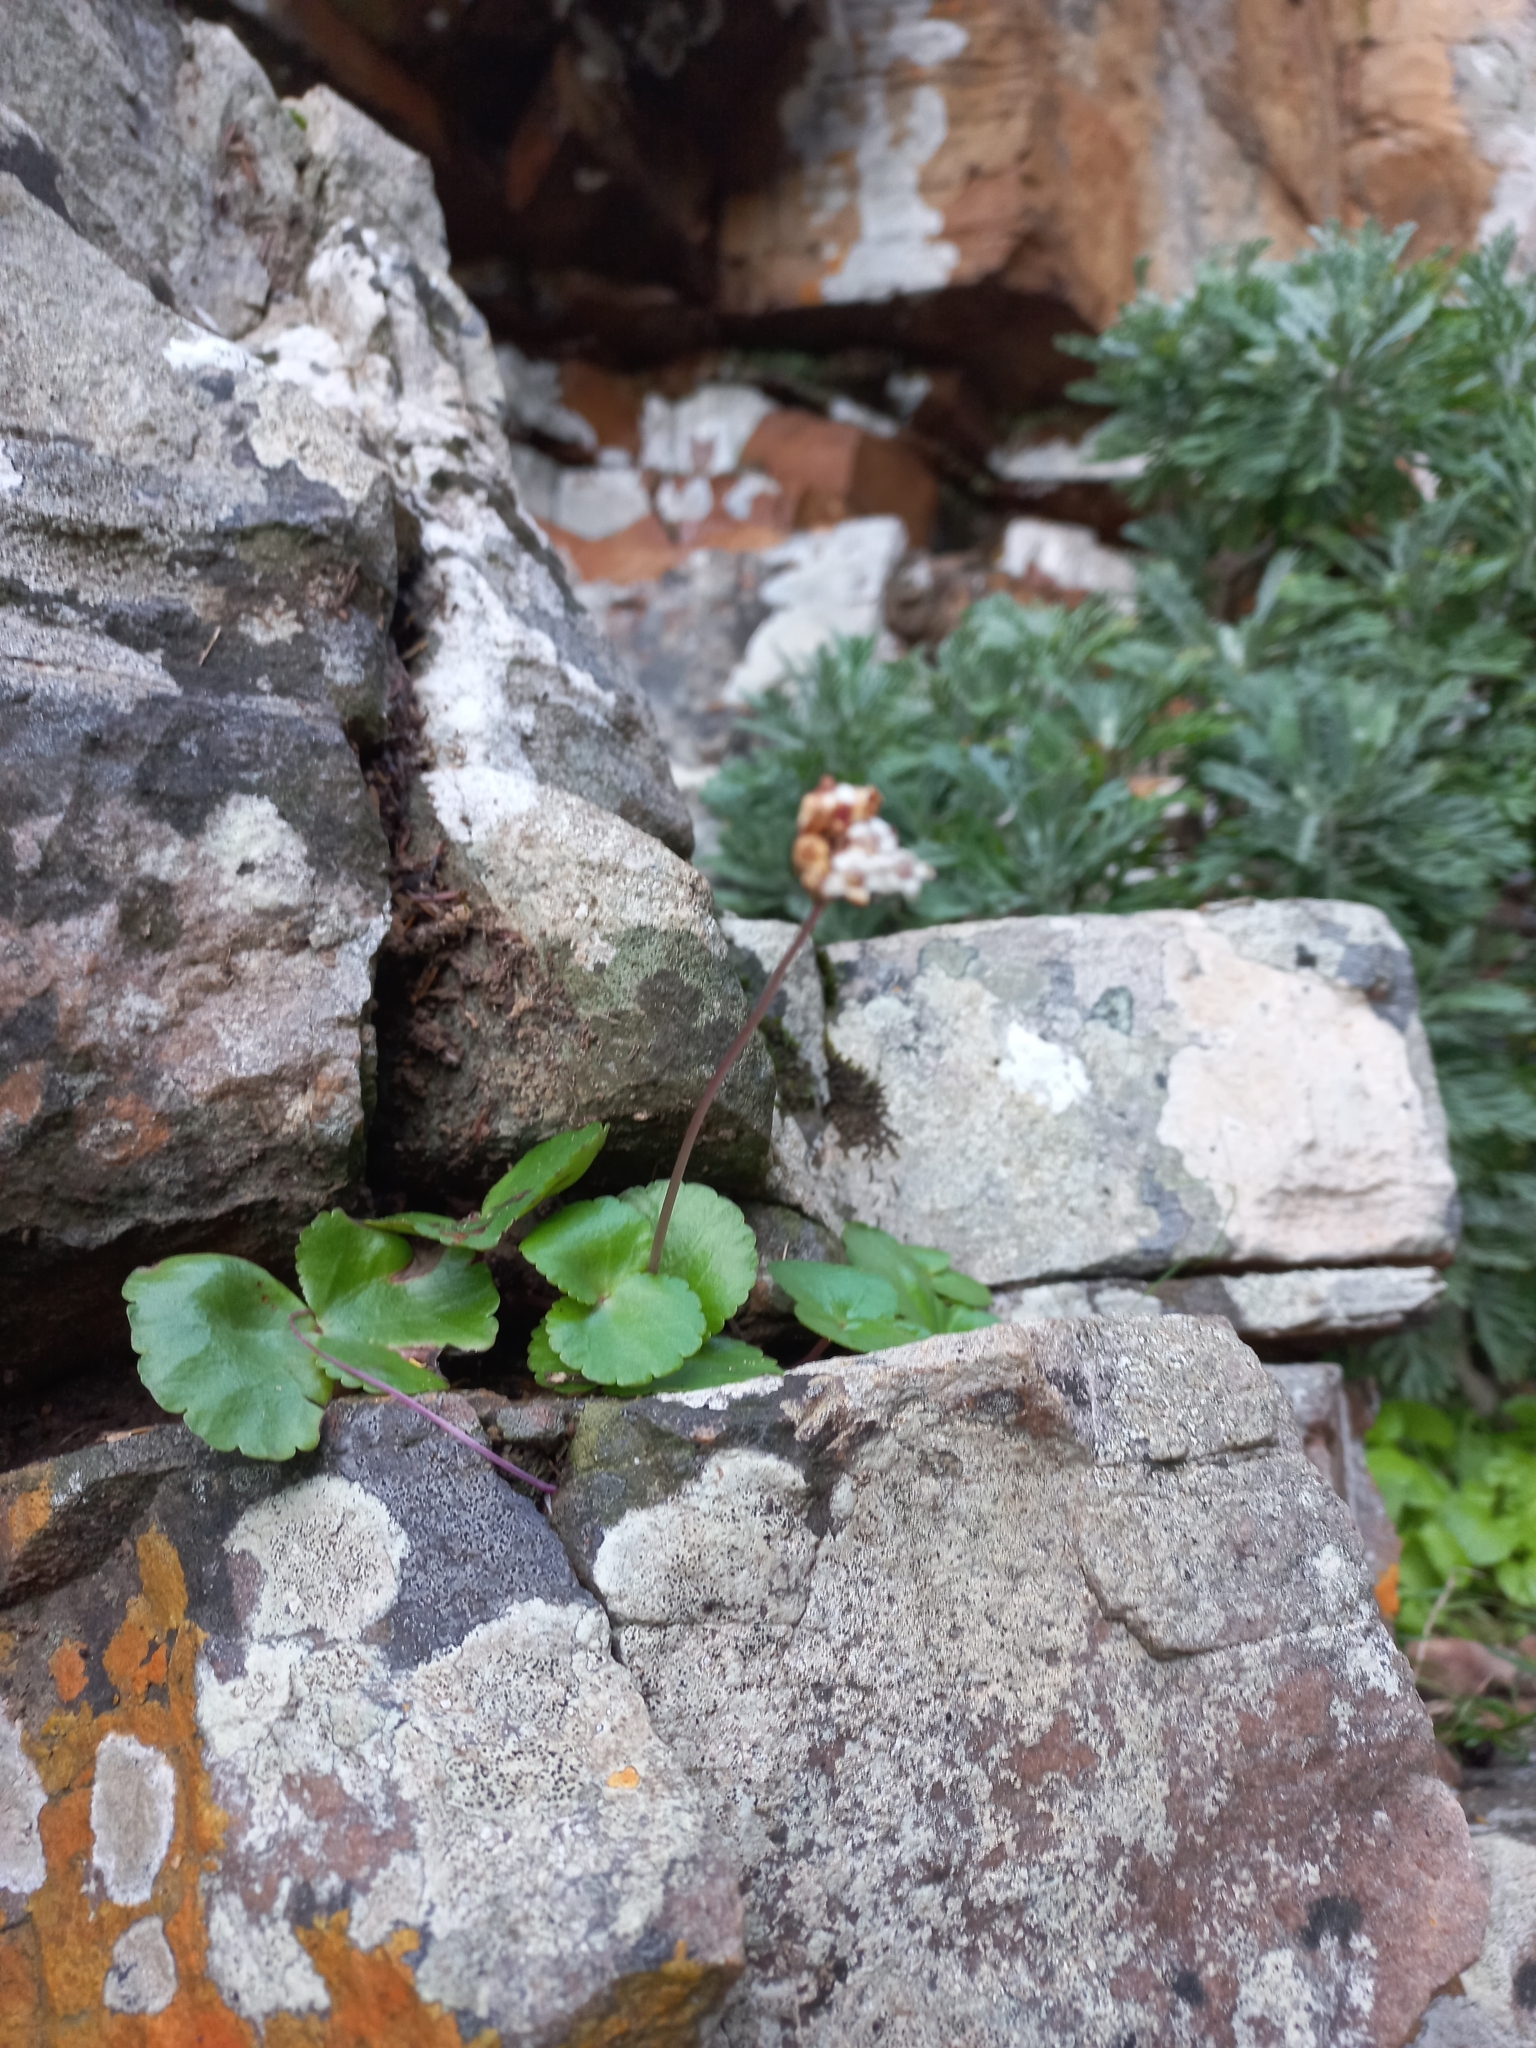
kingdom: Plantae
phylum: Tracheophyta
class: Magnoliopsida
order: Saxifragales
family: Crassulaceae
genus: Crassula
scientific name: Crassula saxifraga
